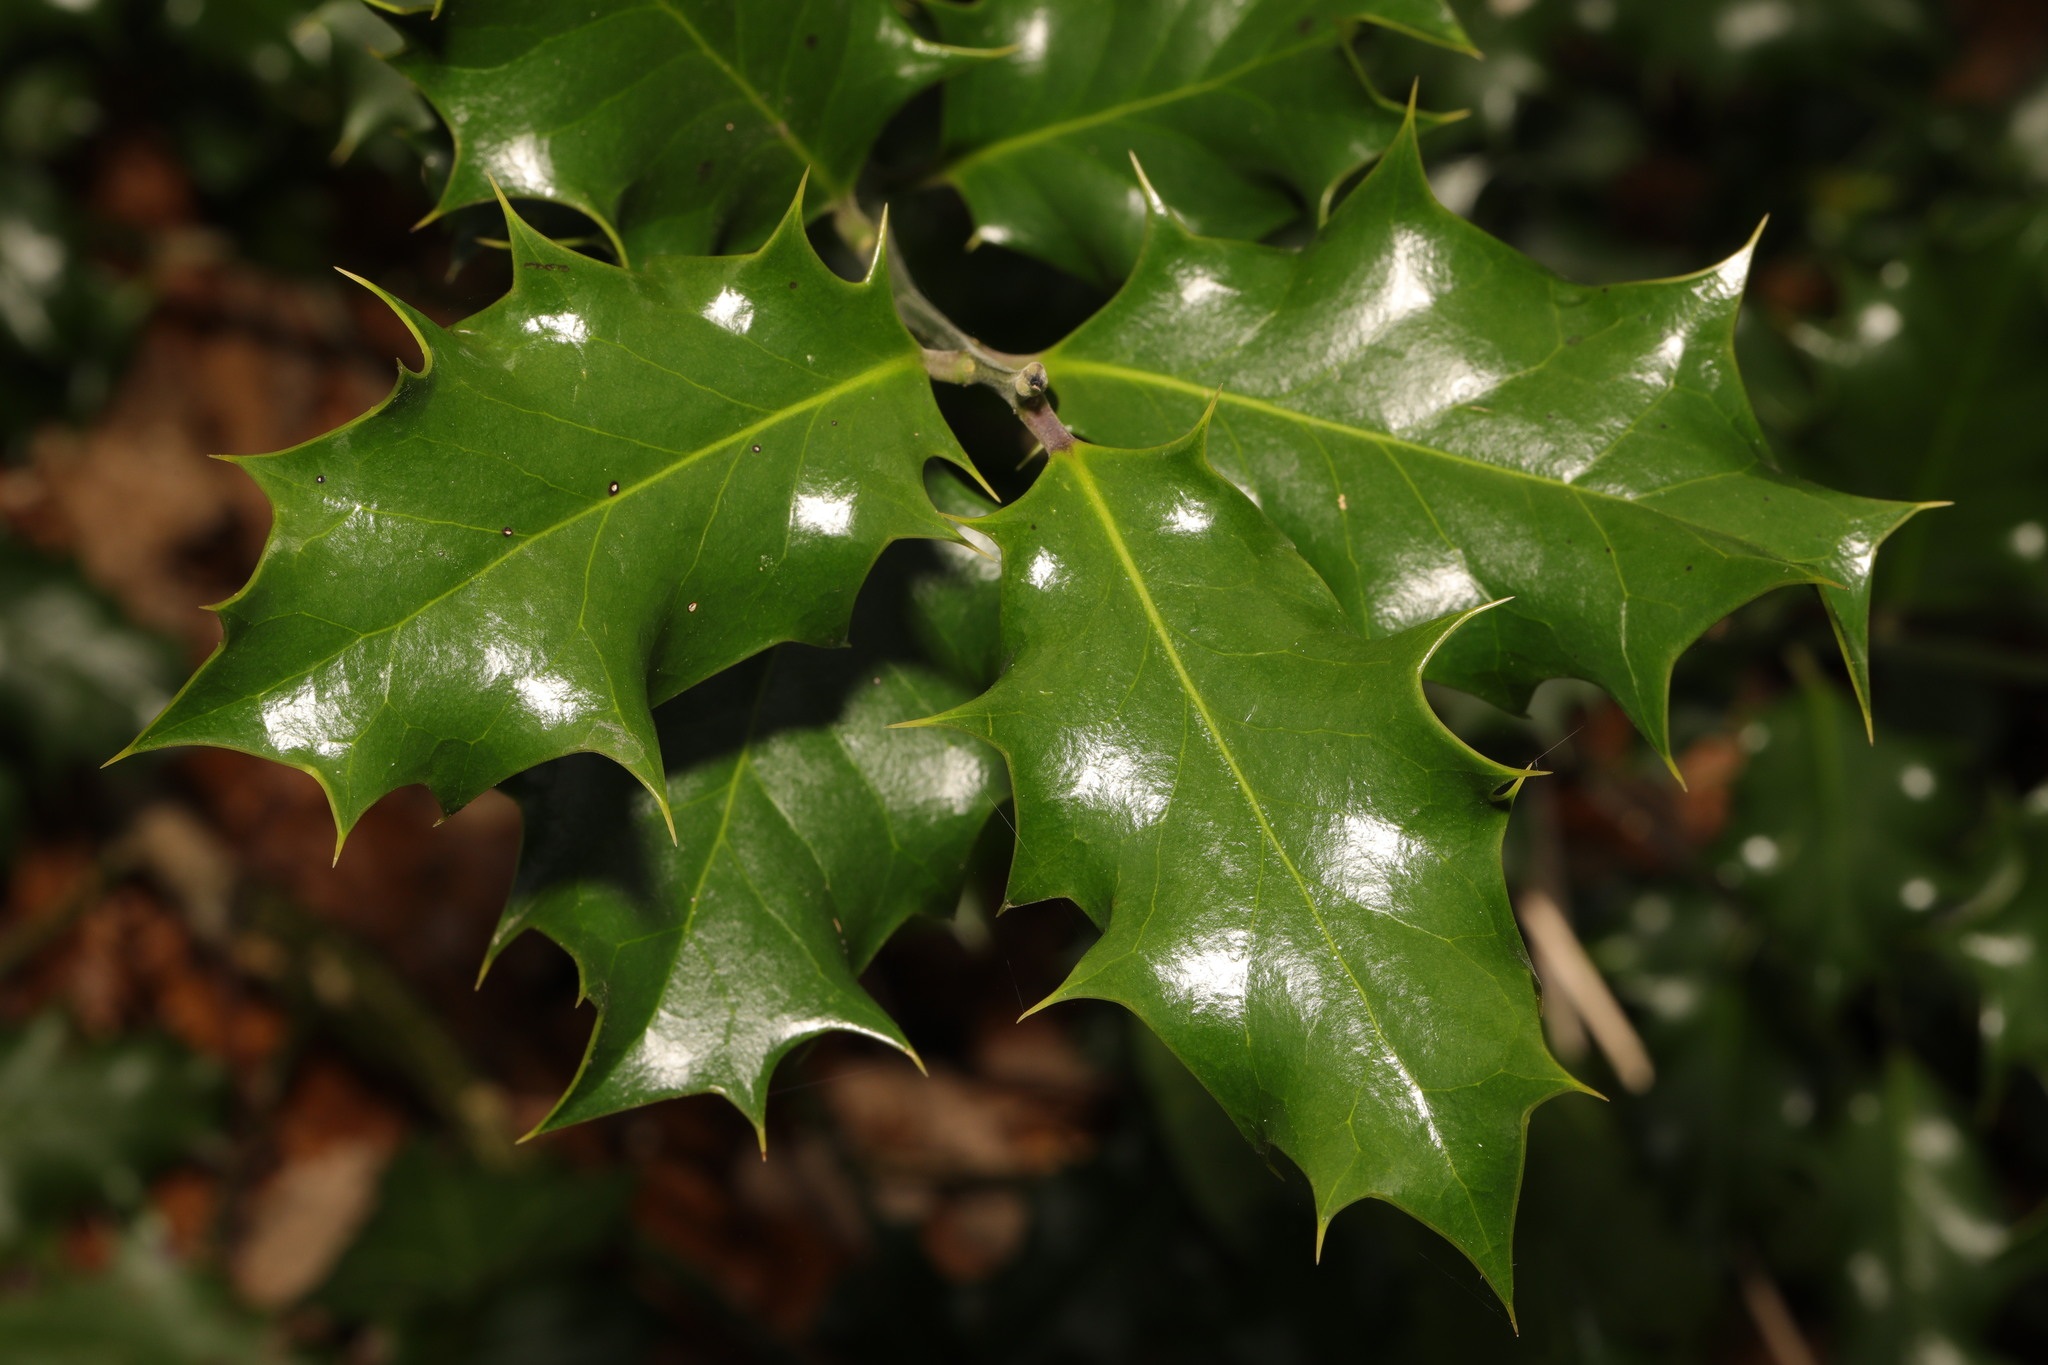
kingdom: Plantae
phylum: Tracheophyta
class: Magnoliopsida
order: Aquifoliales
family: Aquifoliaceae
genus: Ilex
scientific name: Ilex aquifolium
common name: English holly
